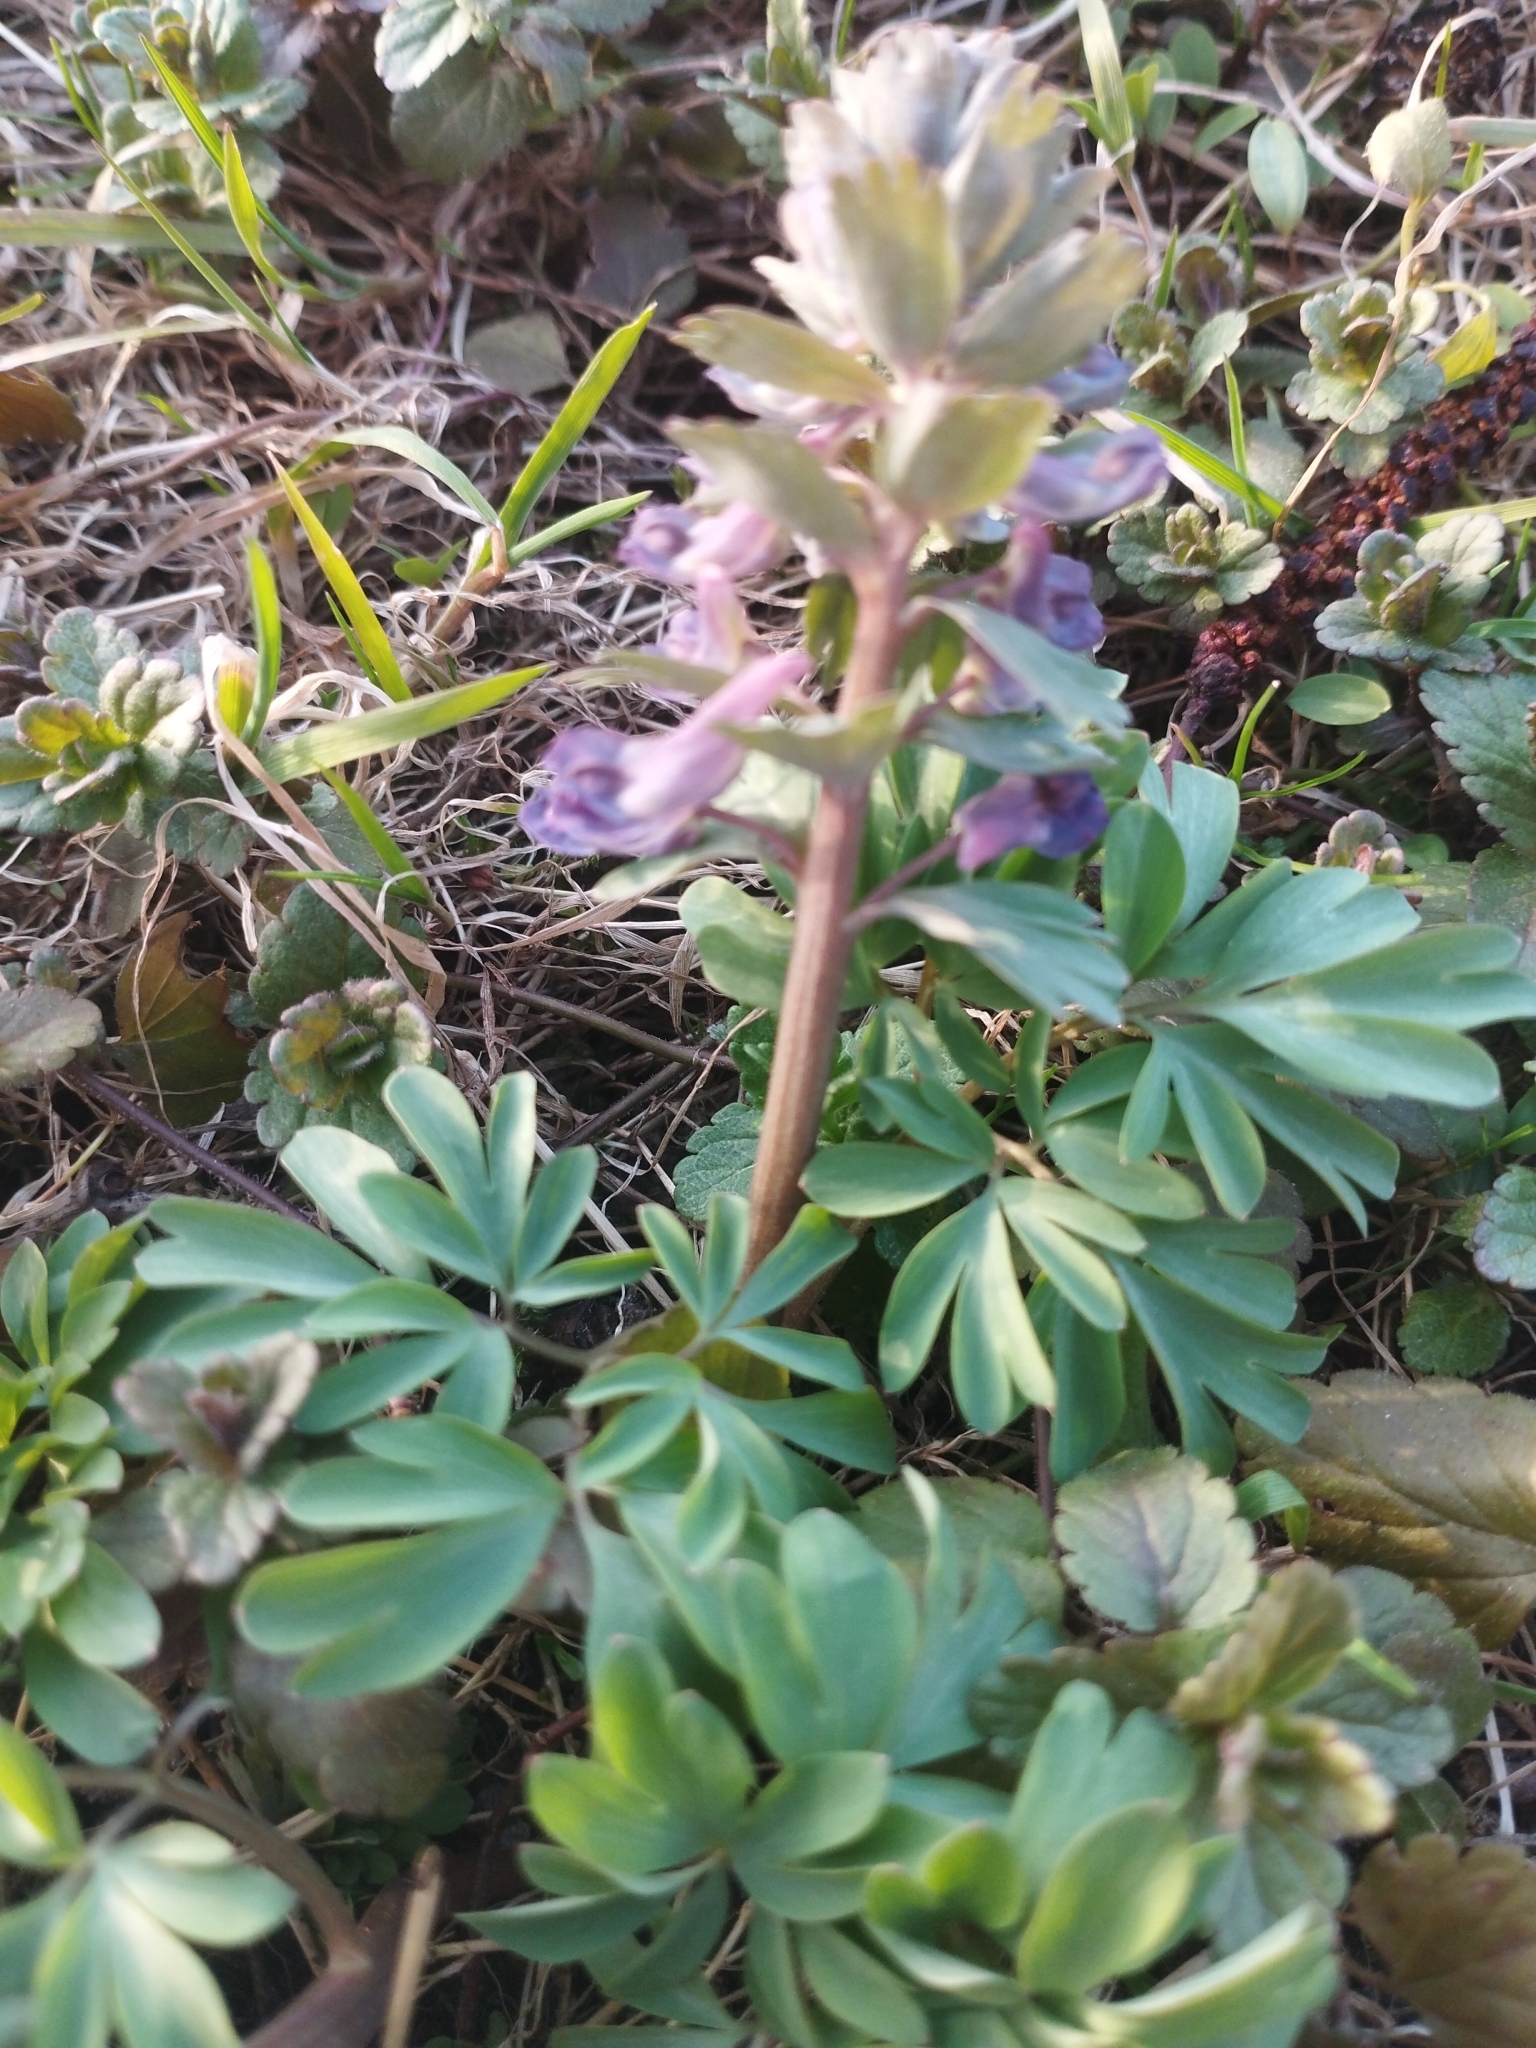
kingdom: Plantae
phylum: Tracheophyta
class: Magnoliopsida
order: Ranunculales
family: Papaveraceae
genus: Corydalis
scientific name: Corydalis solida
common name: Bird-in-a-bush
